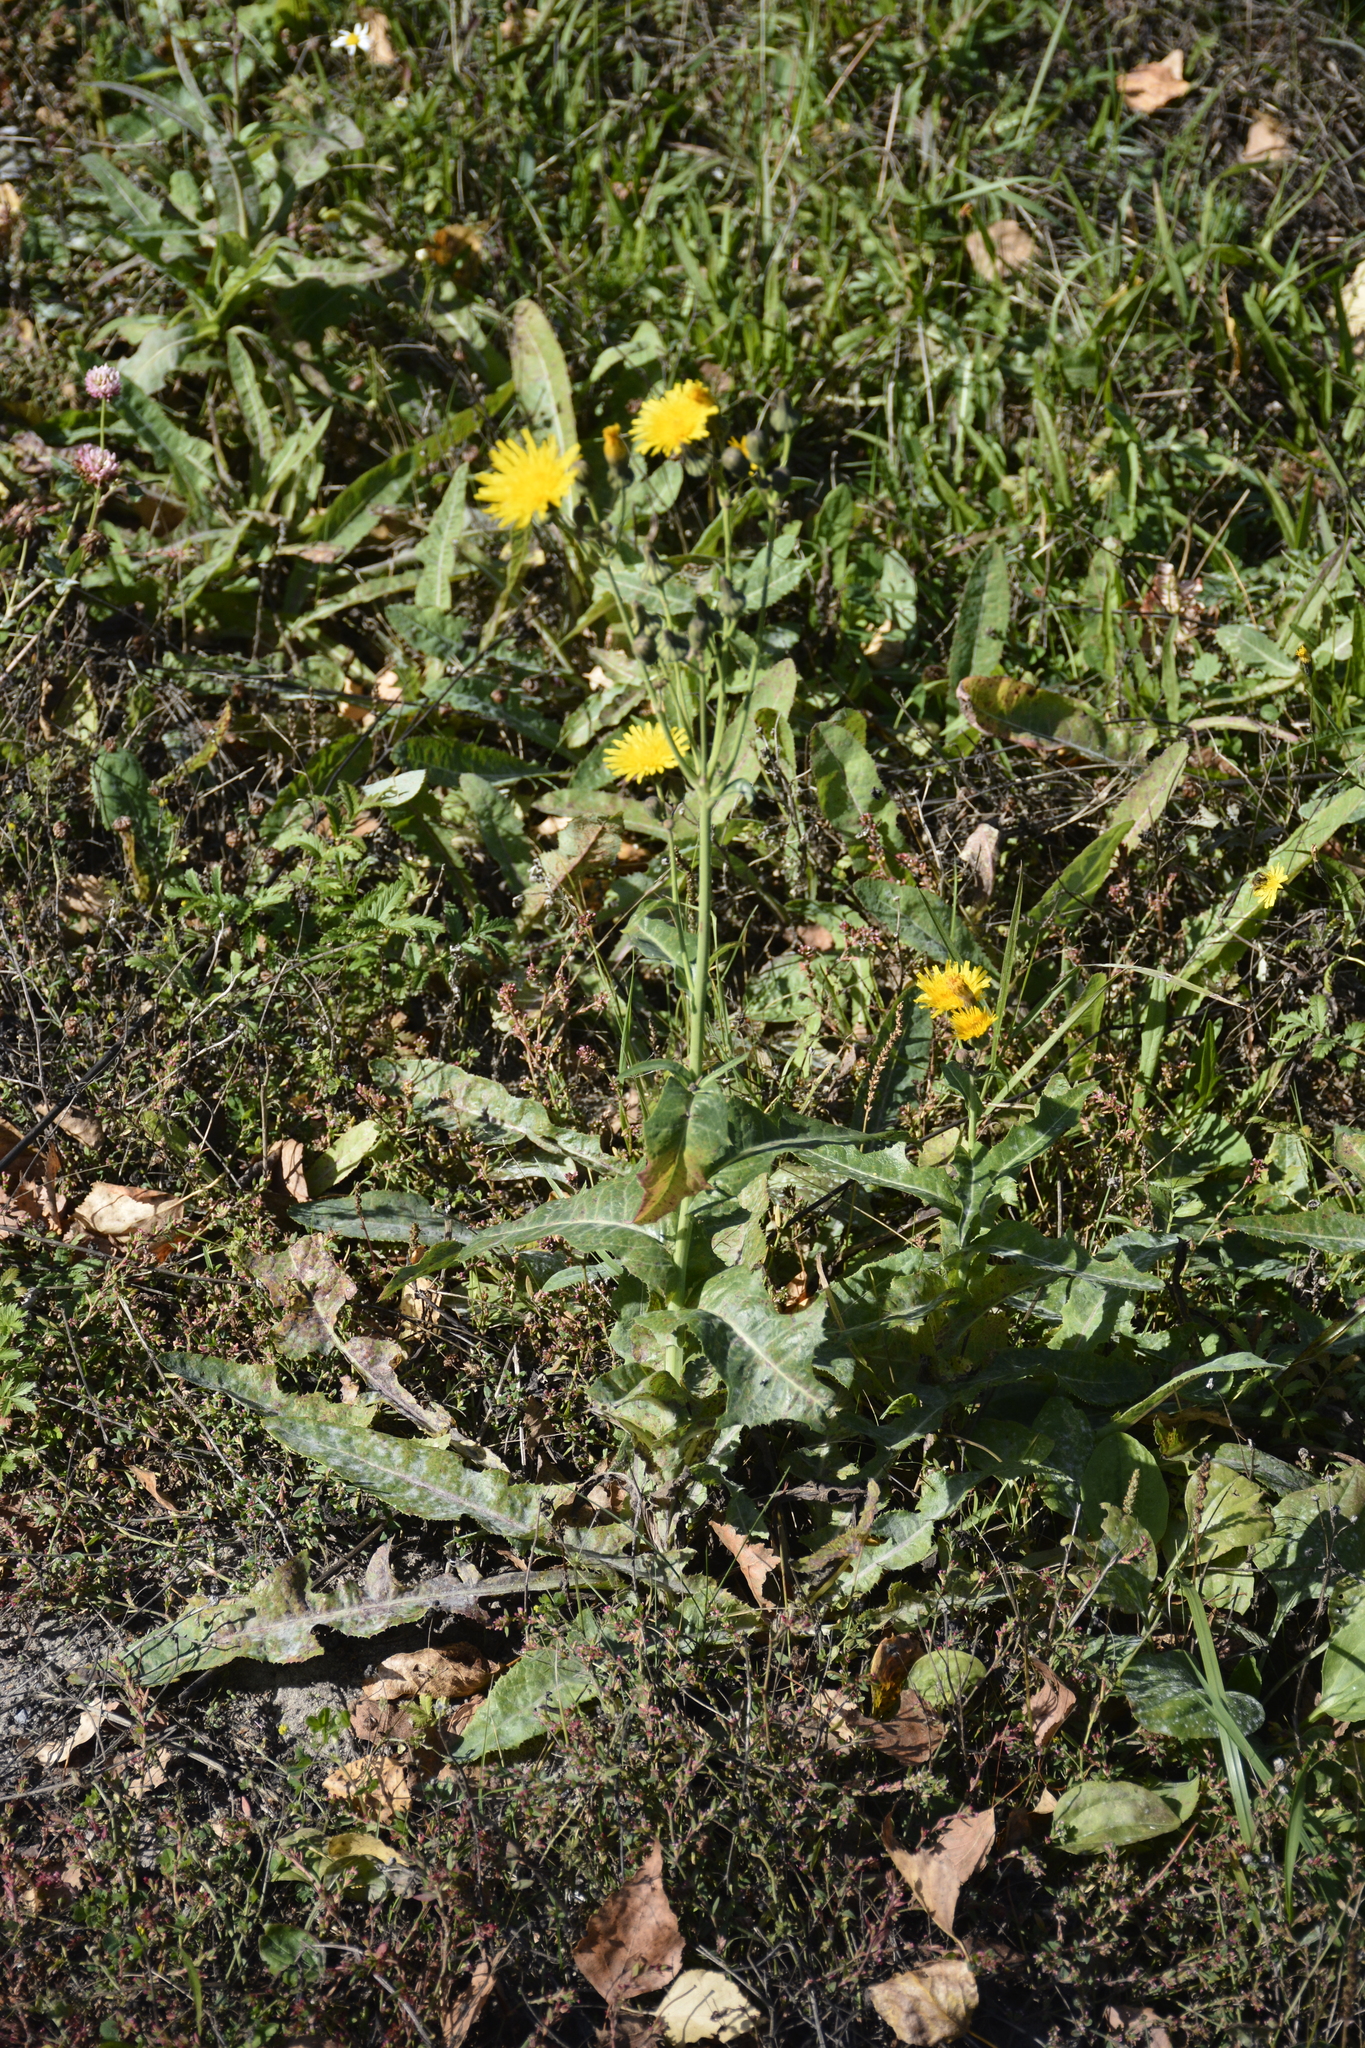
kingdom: Plantae
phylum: Tracheophyta
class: Magnoliopsida
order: Asterales
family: Asteraceae
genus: Sonchus
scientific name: Sonchus arvensis
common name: Perennial sow-thistle
